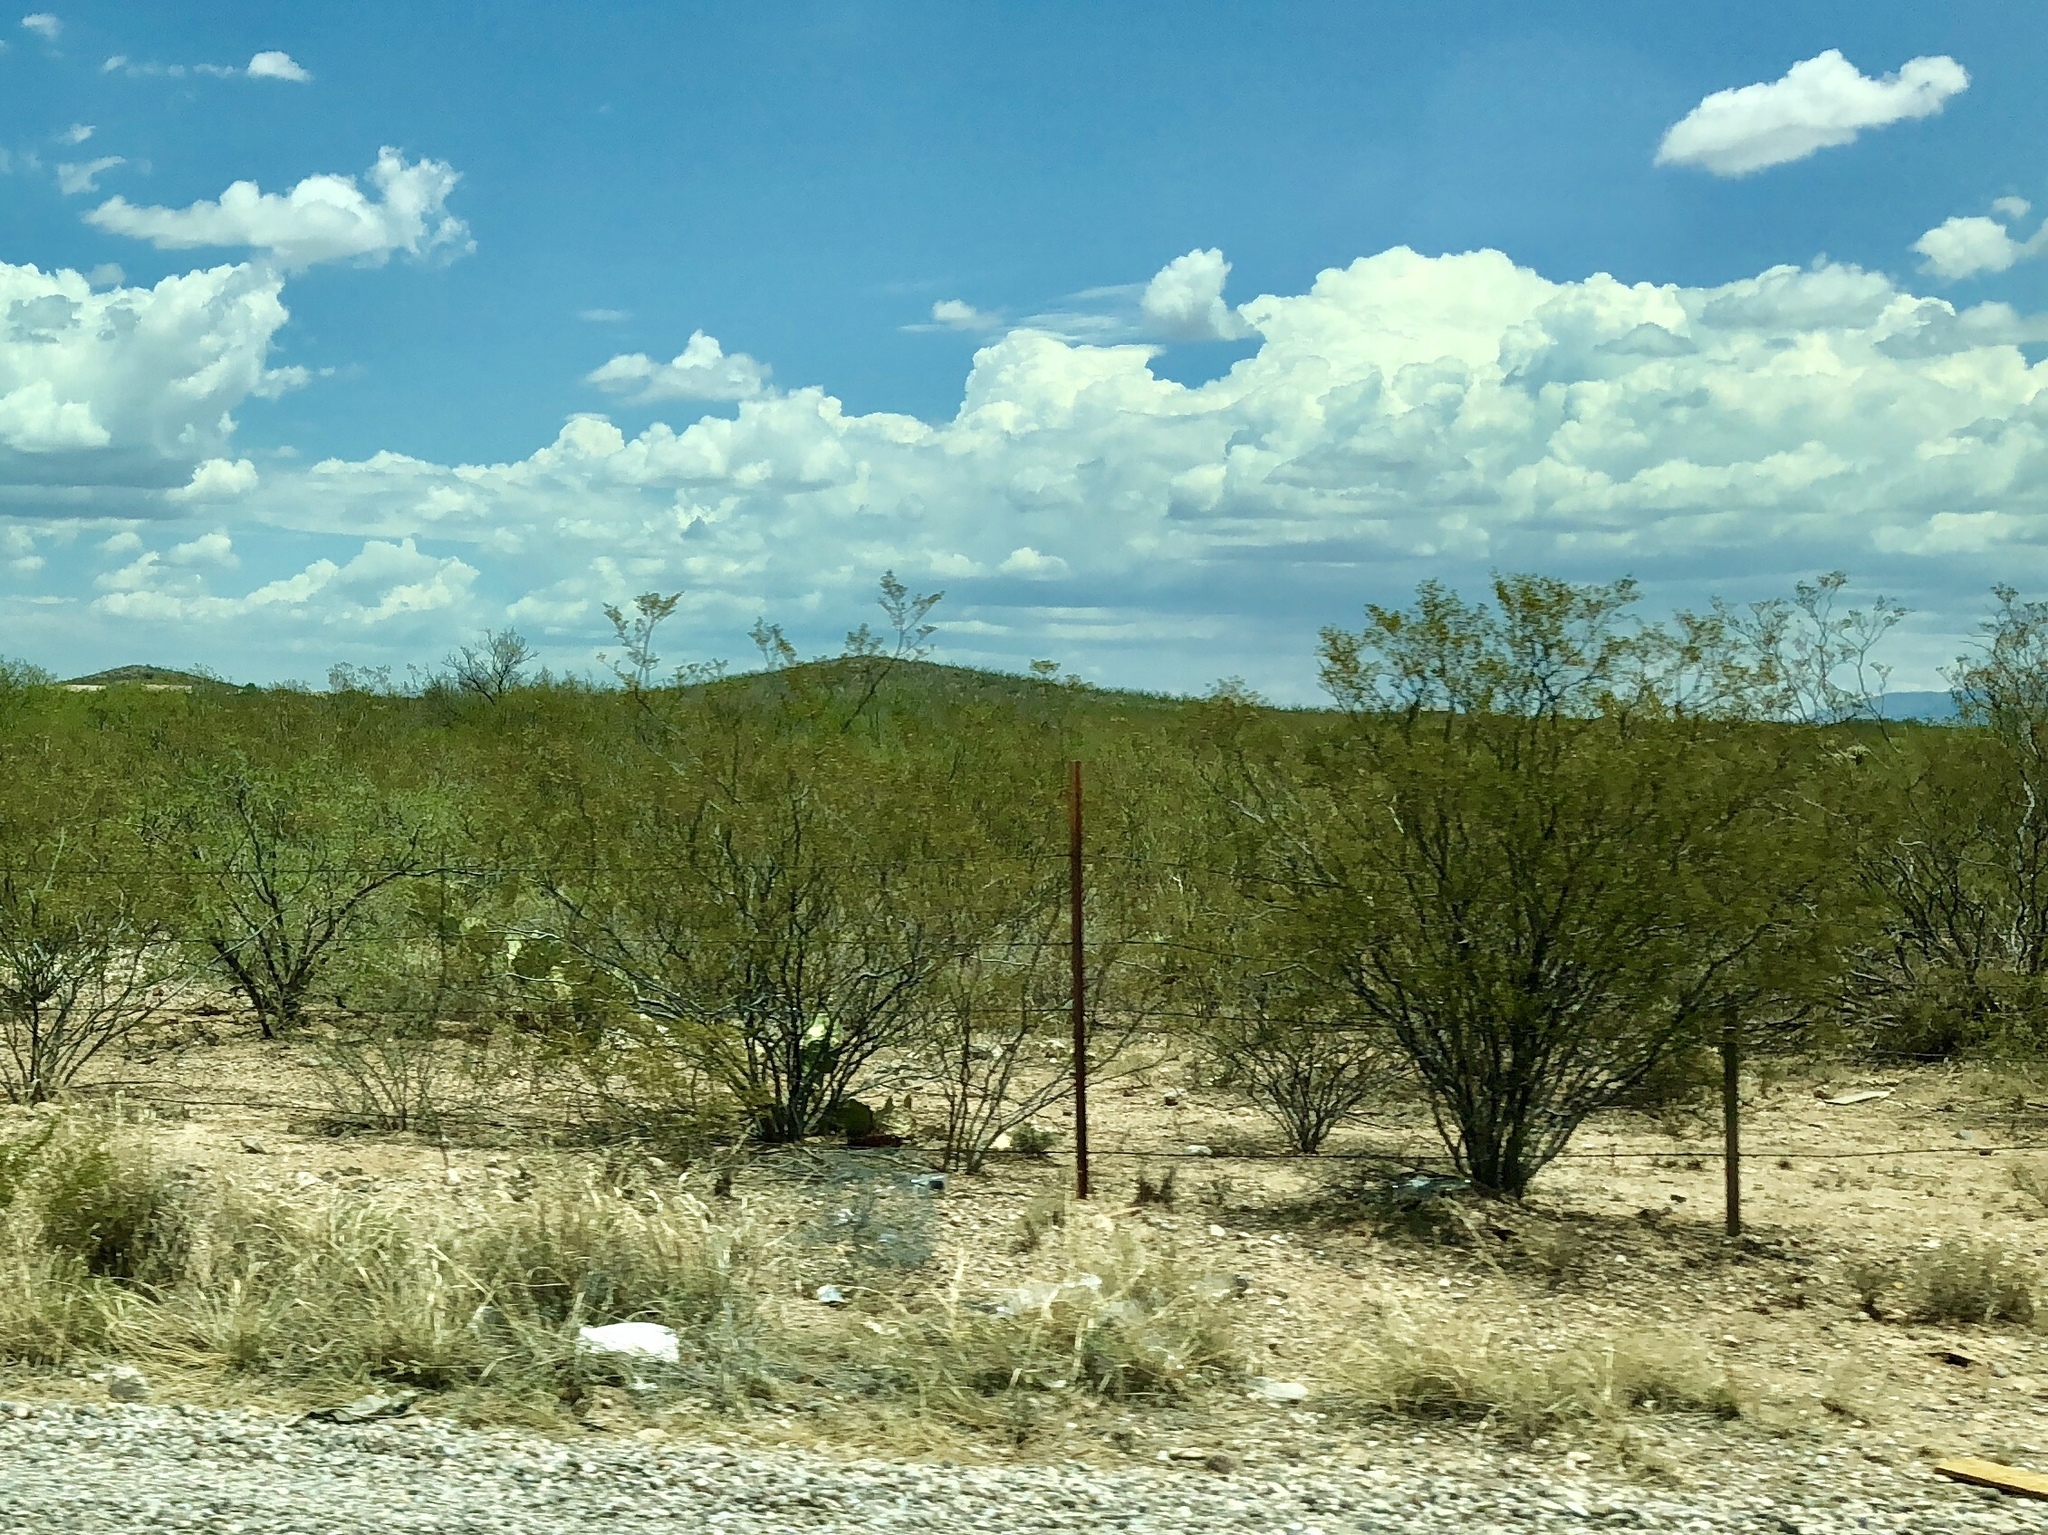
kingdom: Plantae
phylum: Tracheophyta
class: Magnoliopsida
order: Zygophyllales
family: Zygophyllaceae
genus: Larrea
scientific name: Larrea tridentata
